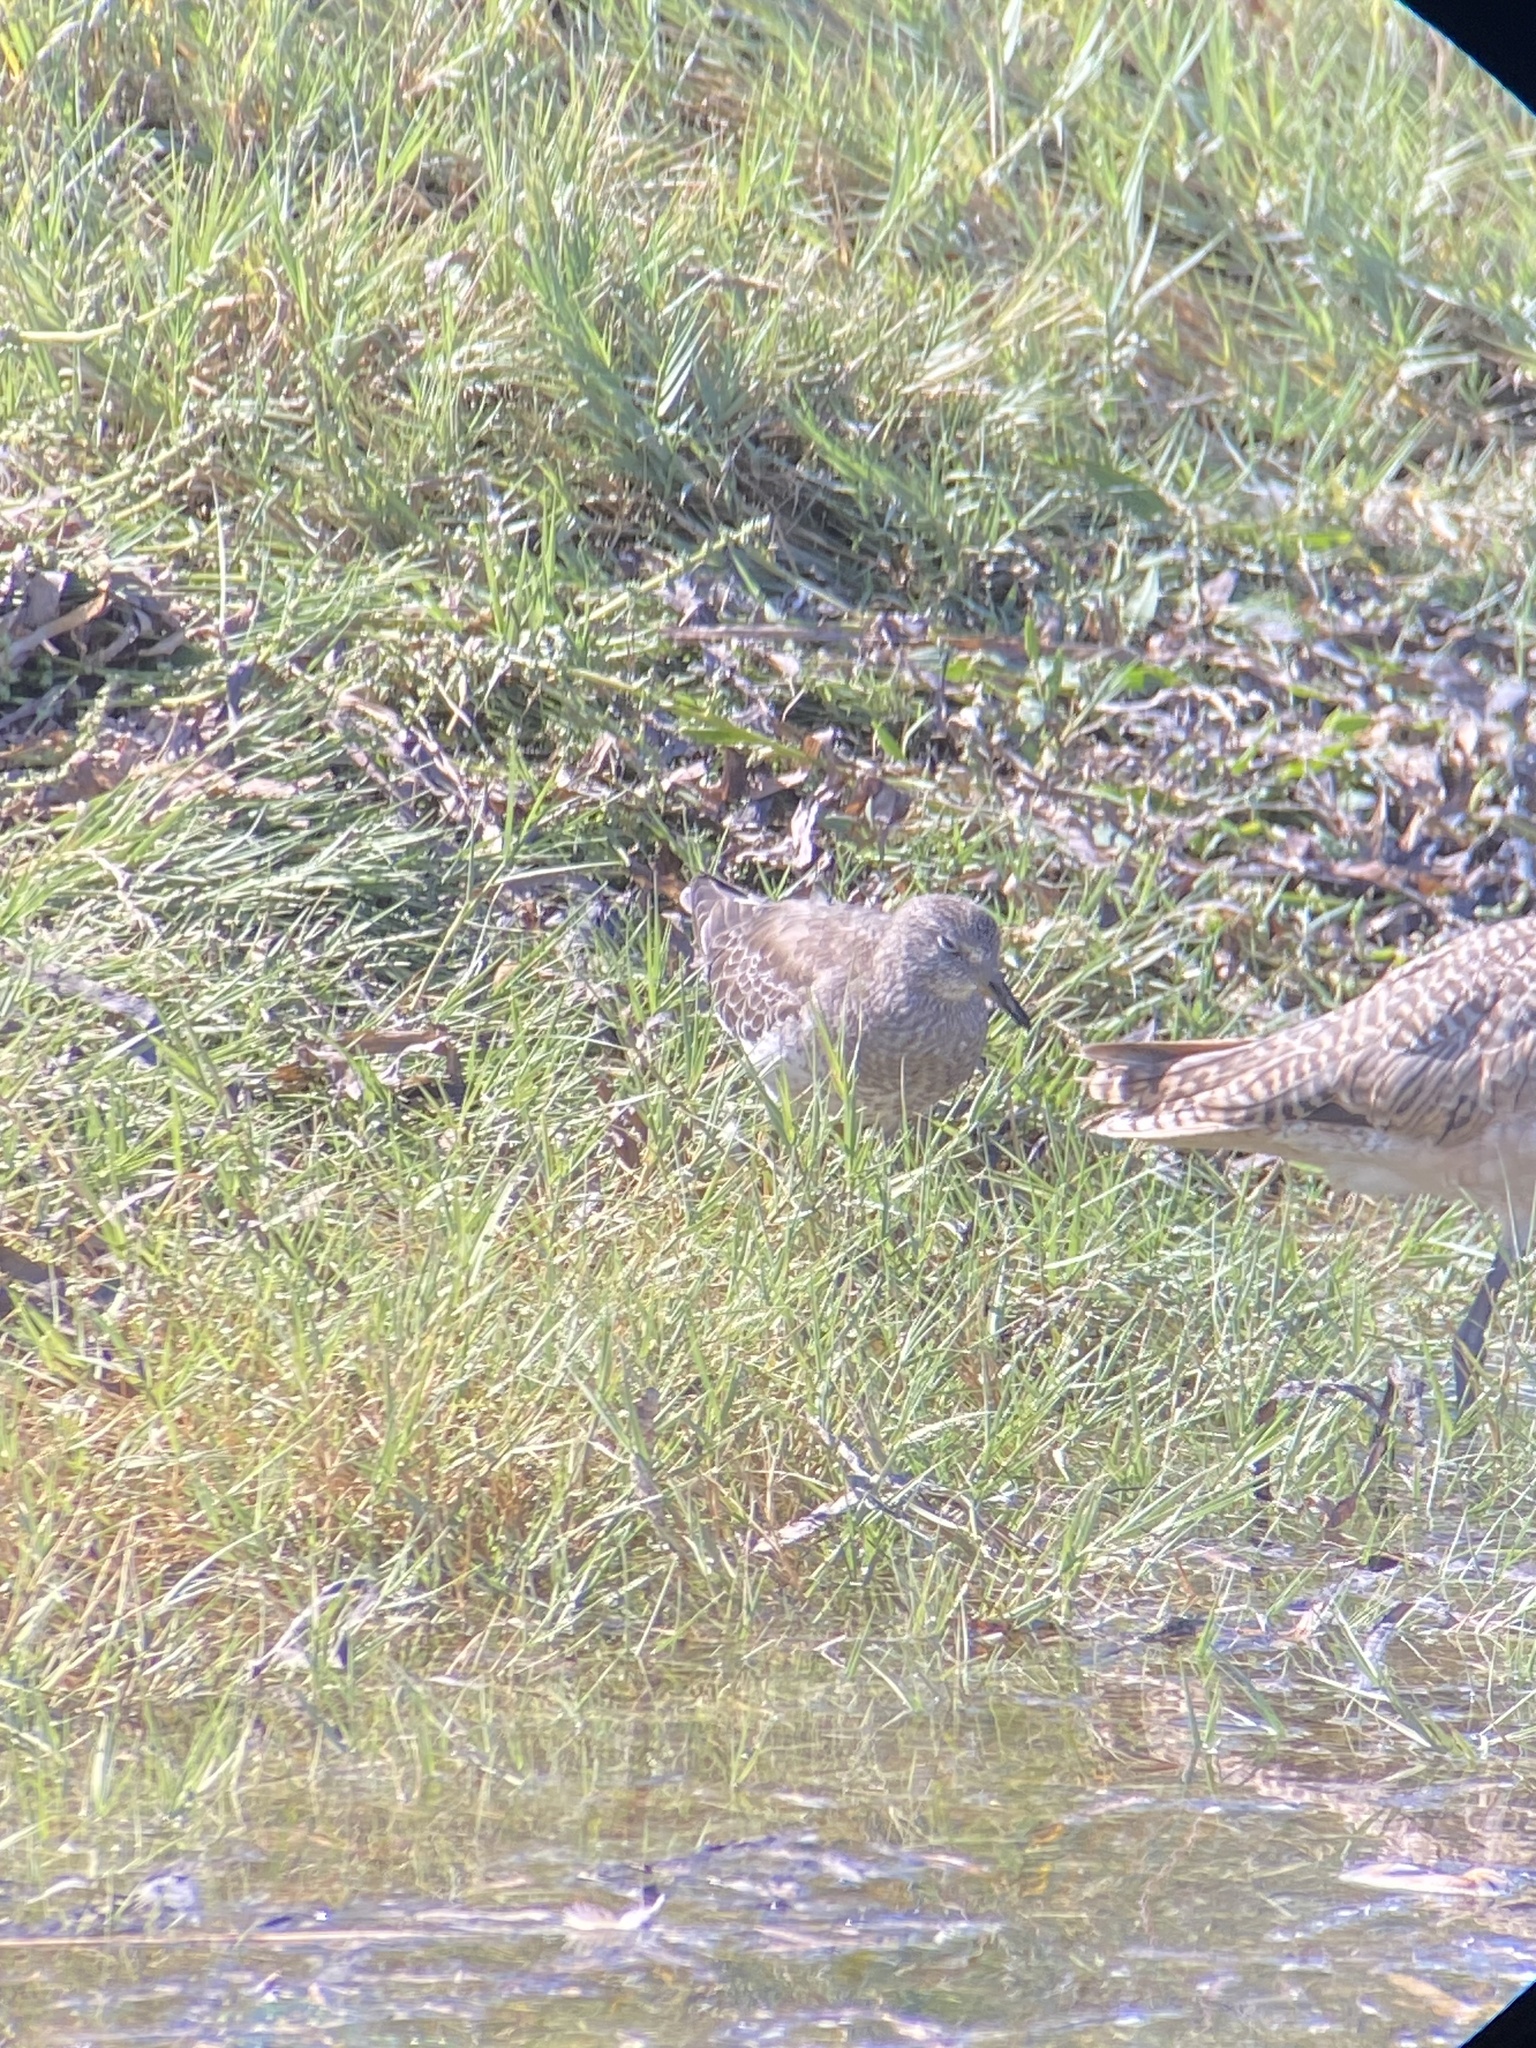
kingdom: Animalia
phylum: Chordata
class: Aves
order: Charadriiformes
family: Scolopacidae
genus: Calidris
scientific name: Calidris virgata
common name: Surfbird
